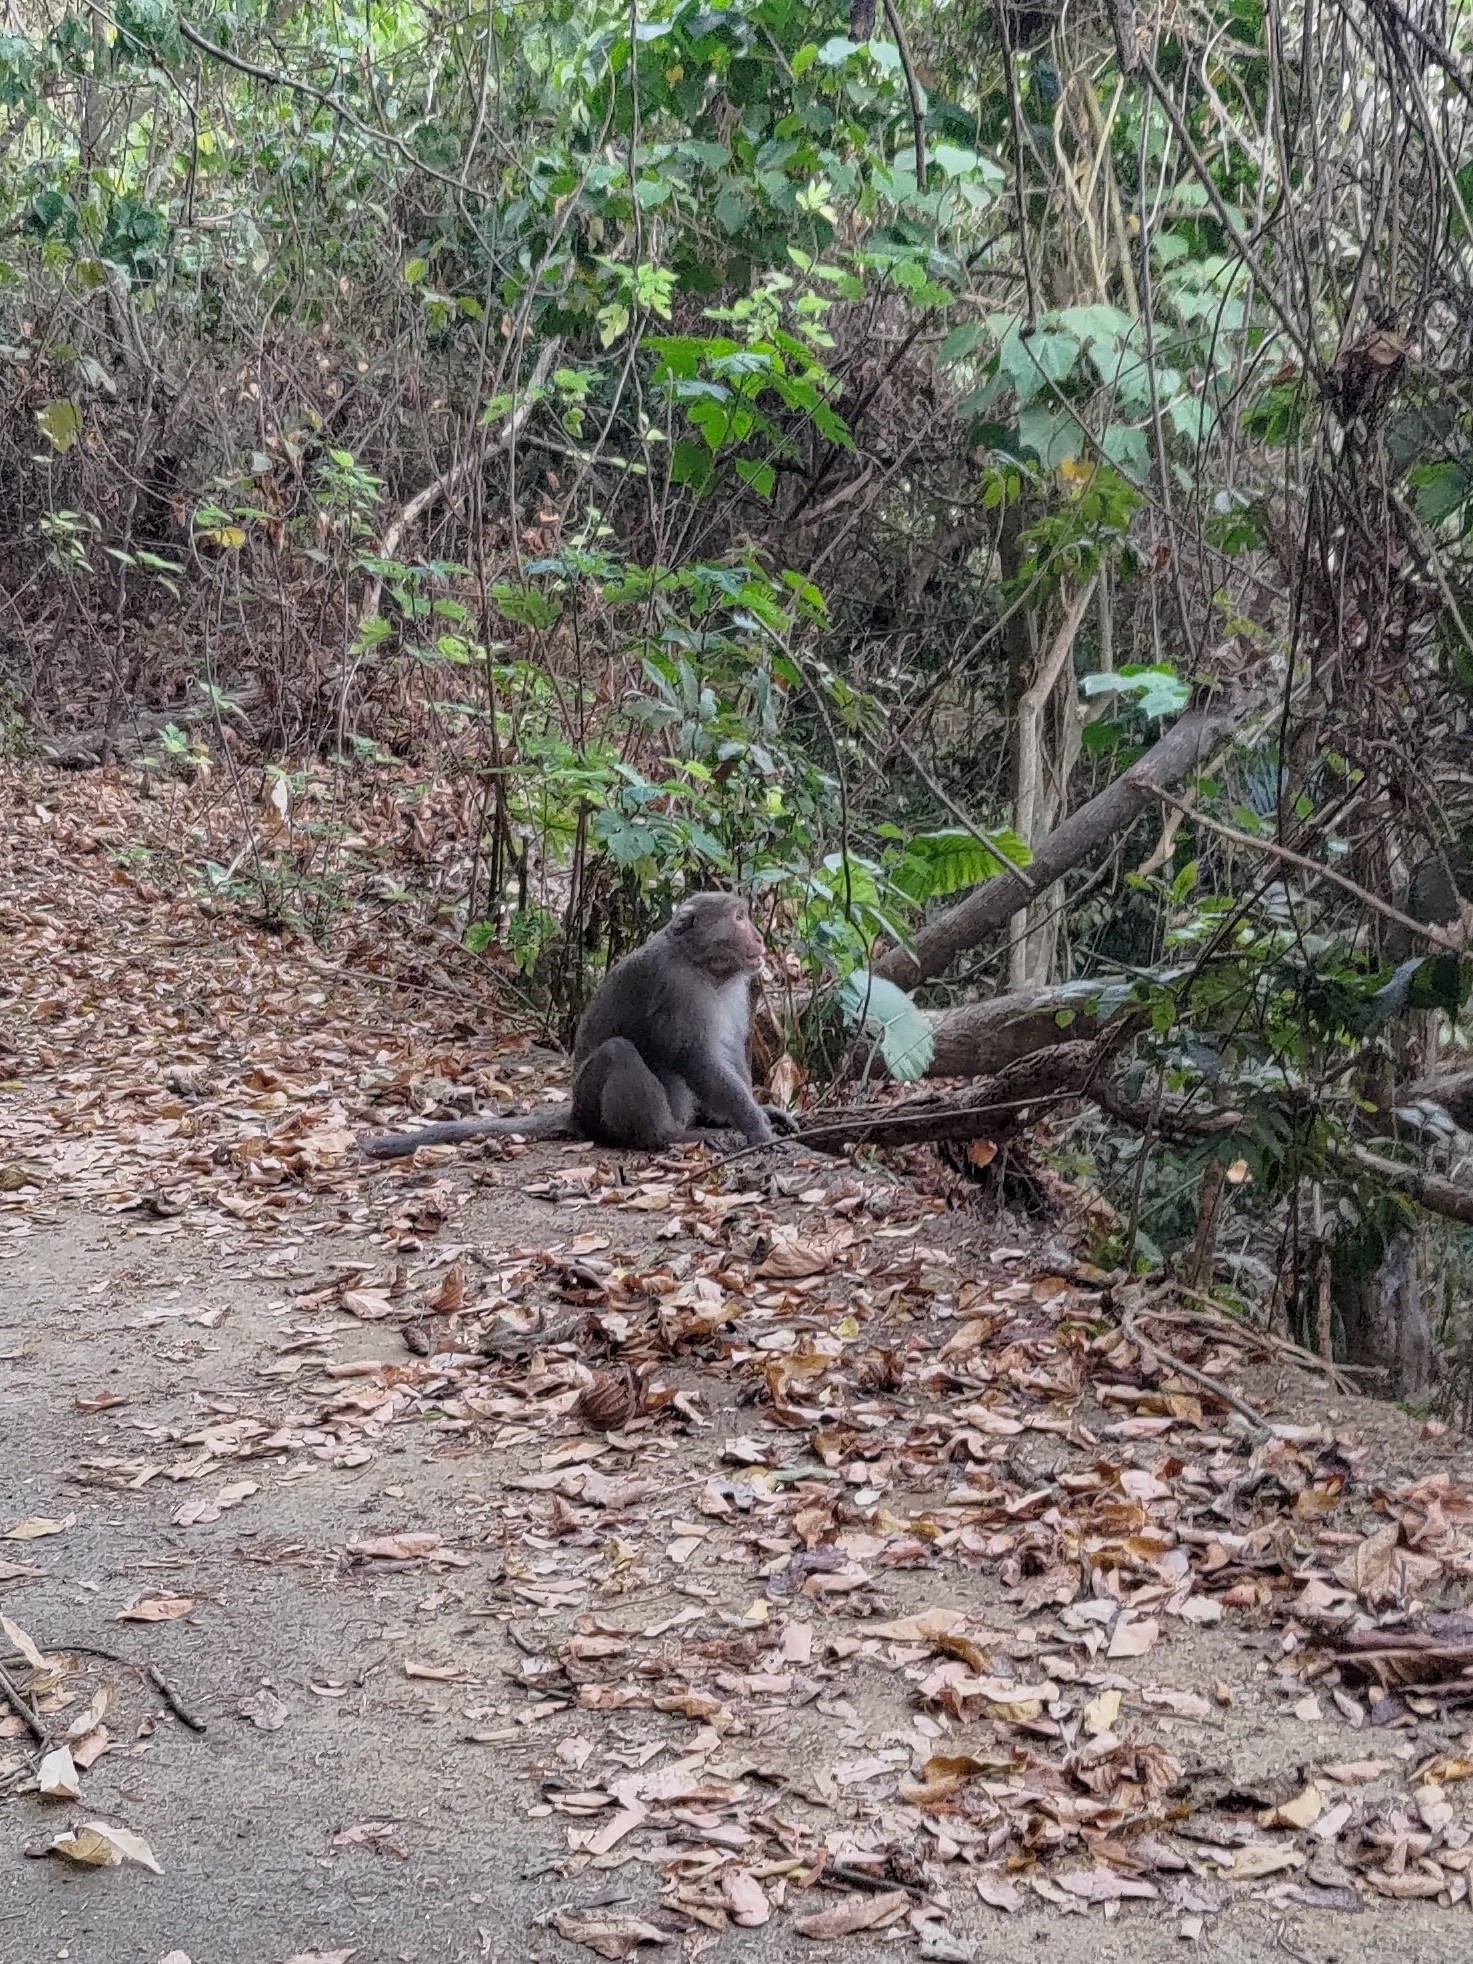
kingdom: Animalia
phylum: Chordata
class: Mammalia
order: Primates
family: Cercopithecidae
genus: Macaca
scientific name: Macaca cyclopis
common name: Formosan rock macaque
